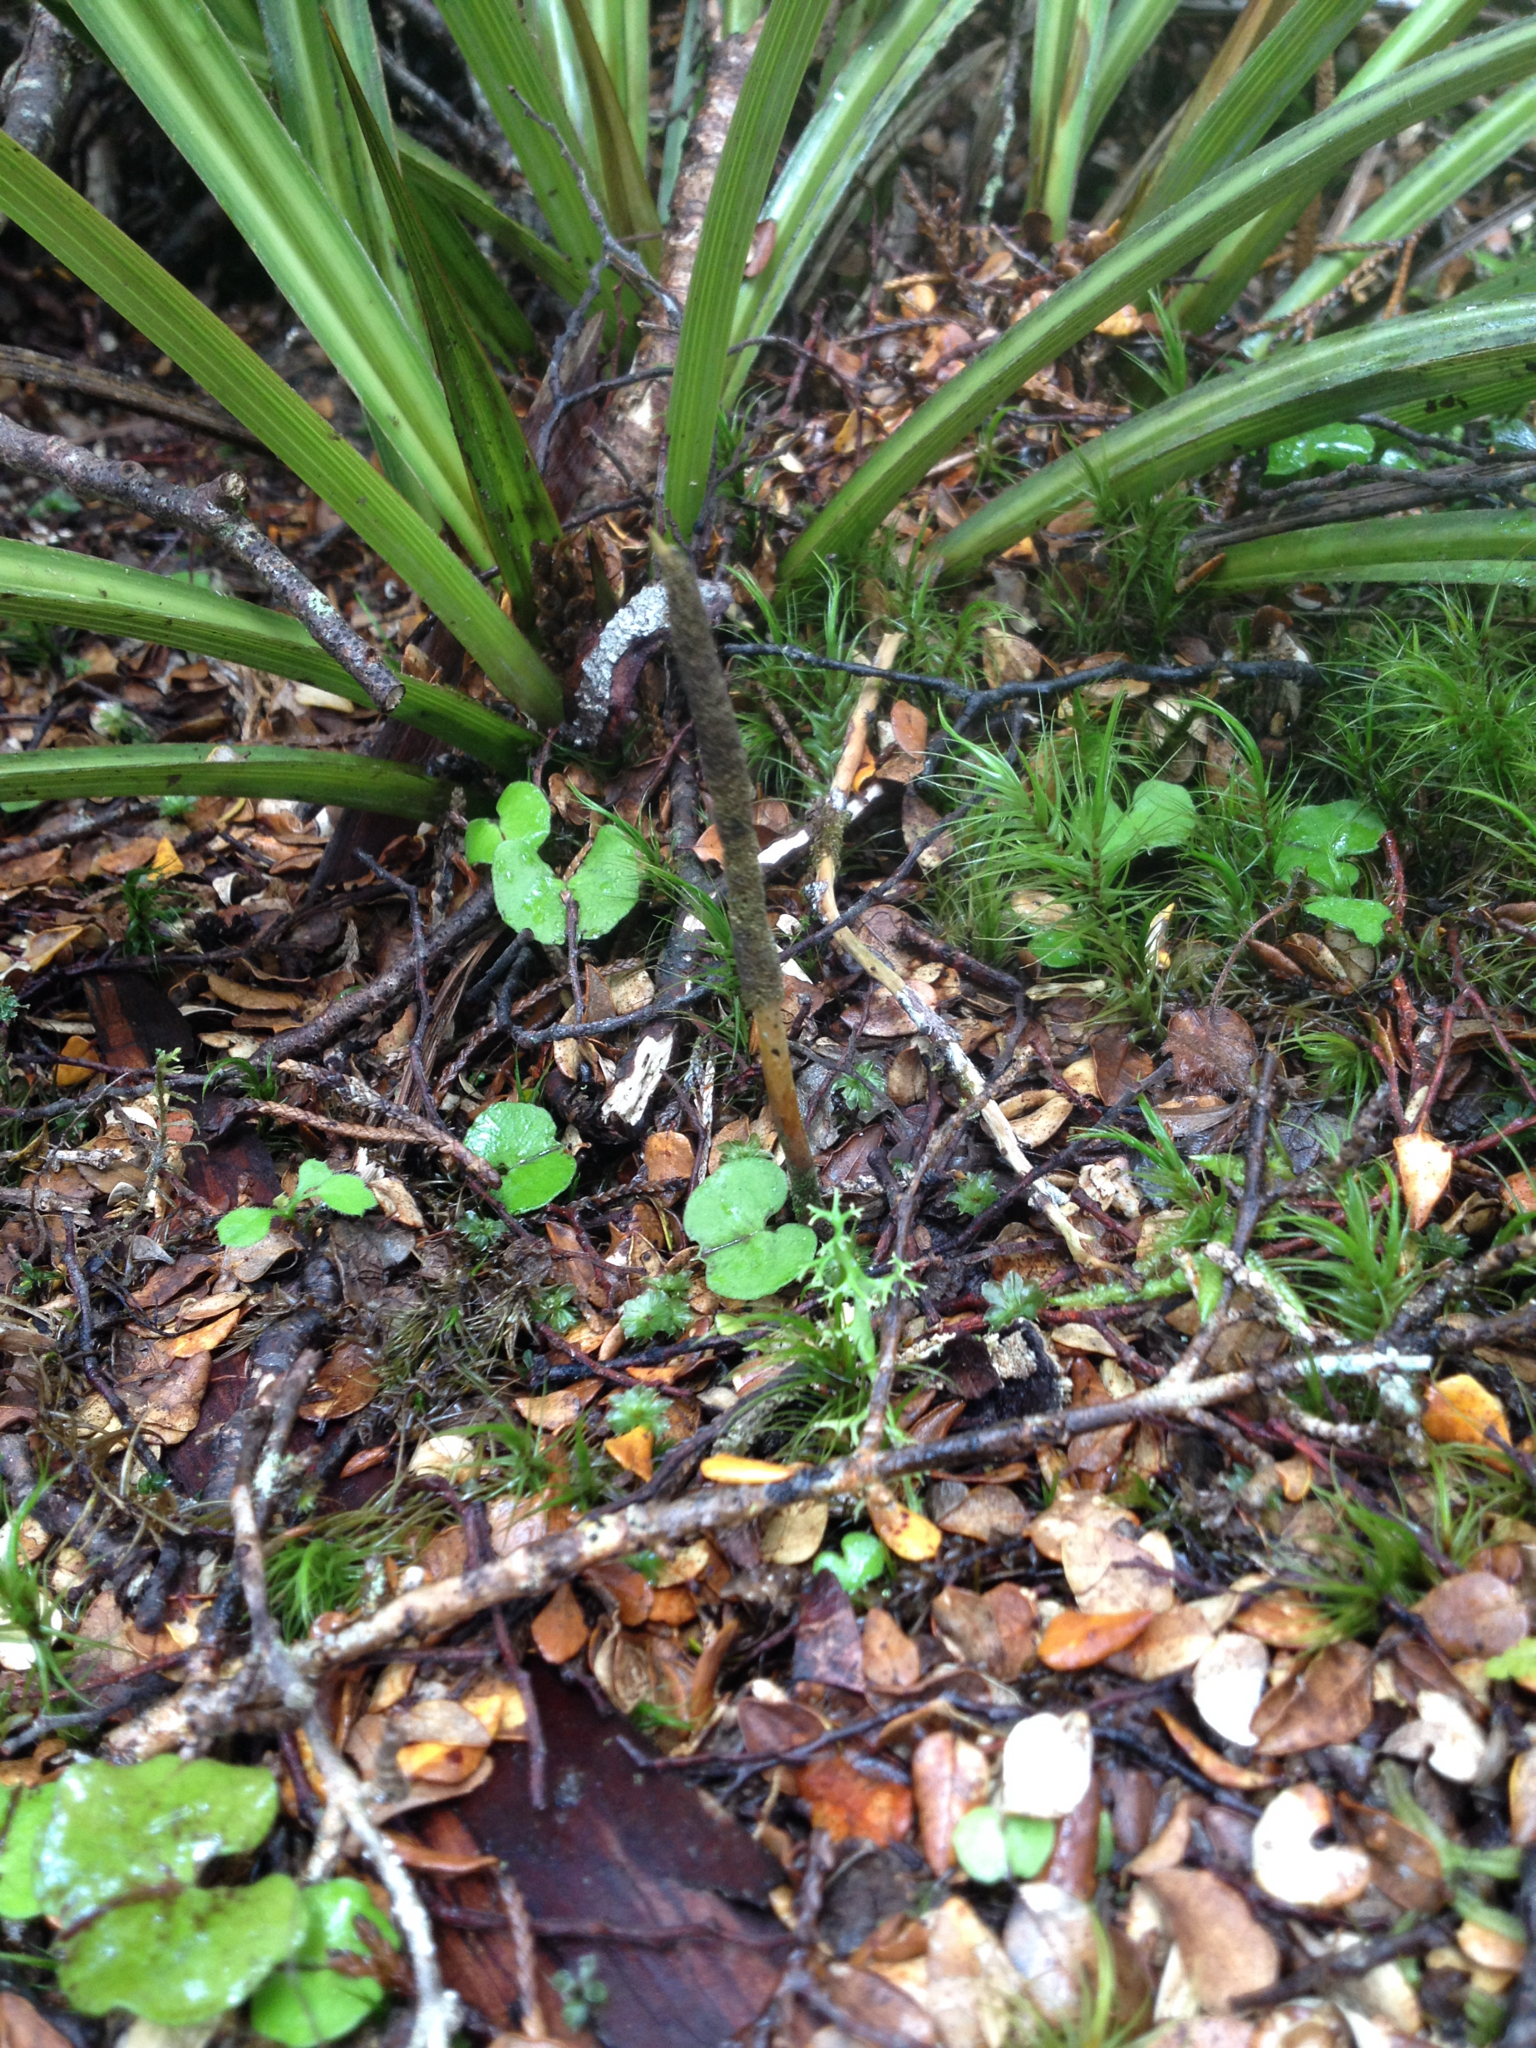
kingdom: Fungi
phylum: Ascomycota
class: Sordariomycetes
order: Hypocreales
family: Ophiocordycipitaceae
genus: Ophiocordyceps
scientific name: Ophiocordyceps robertsii
